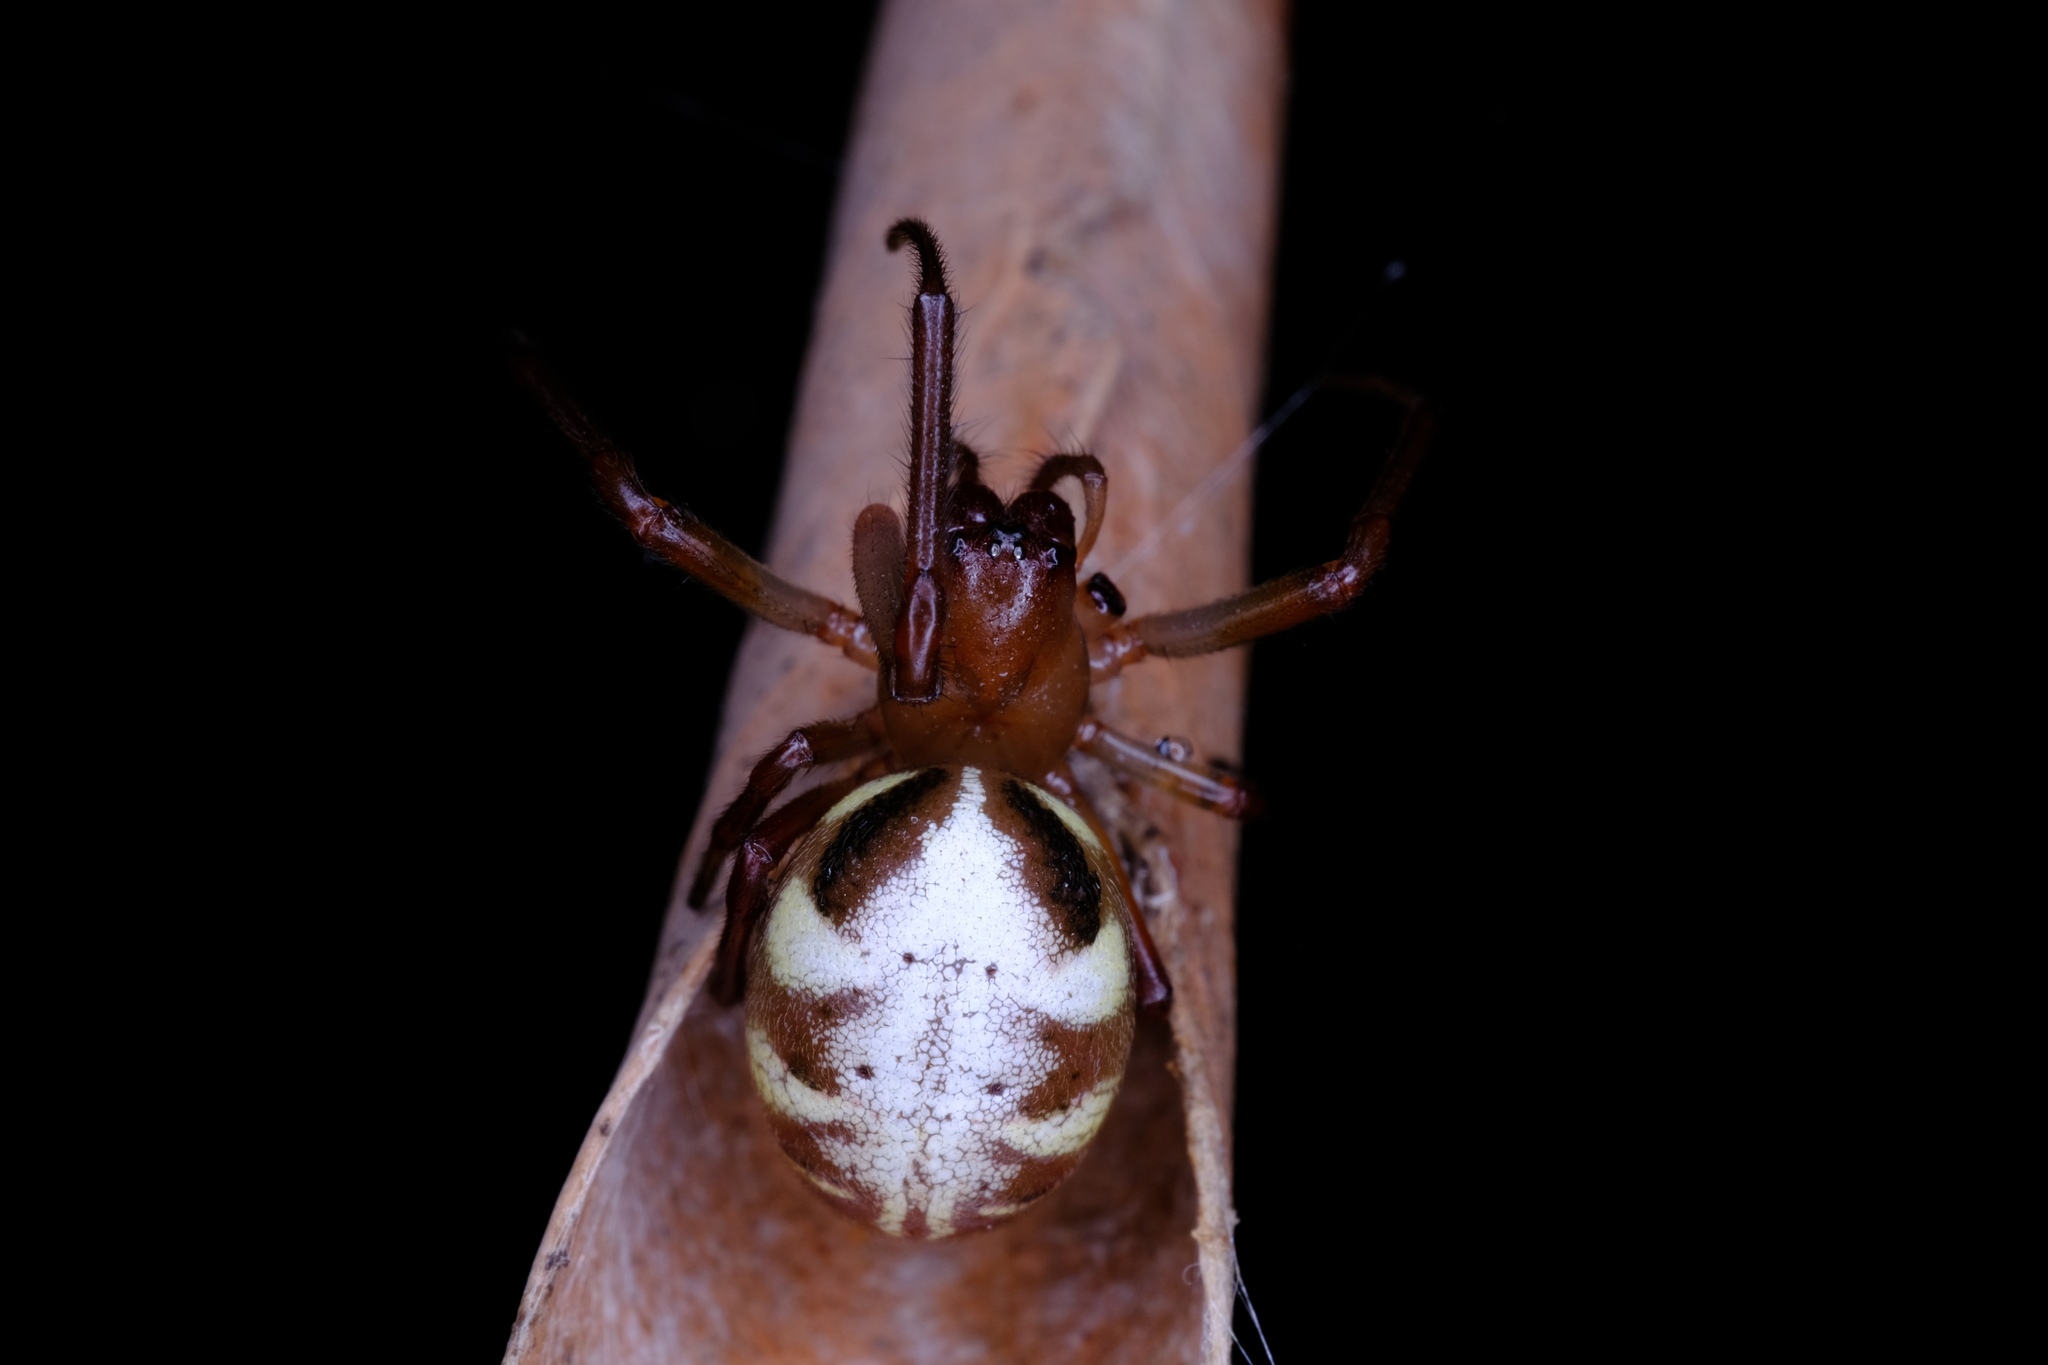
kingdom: Animalia
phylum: Arthropoda
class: Arachnida
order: Araneae
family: Araneidae
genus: Phonognatha
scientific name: Phonognatha graeffei
